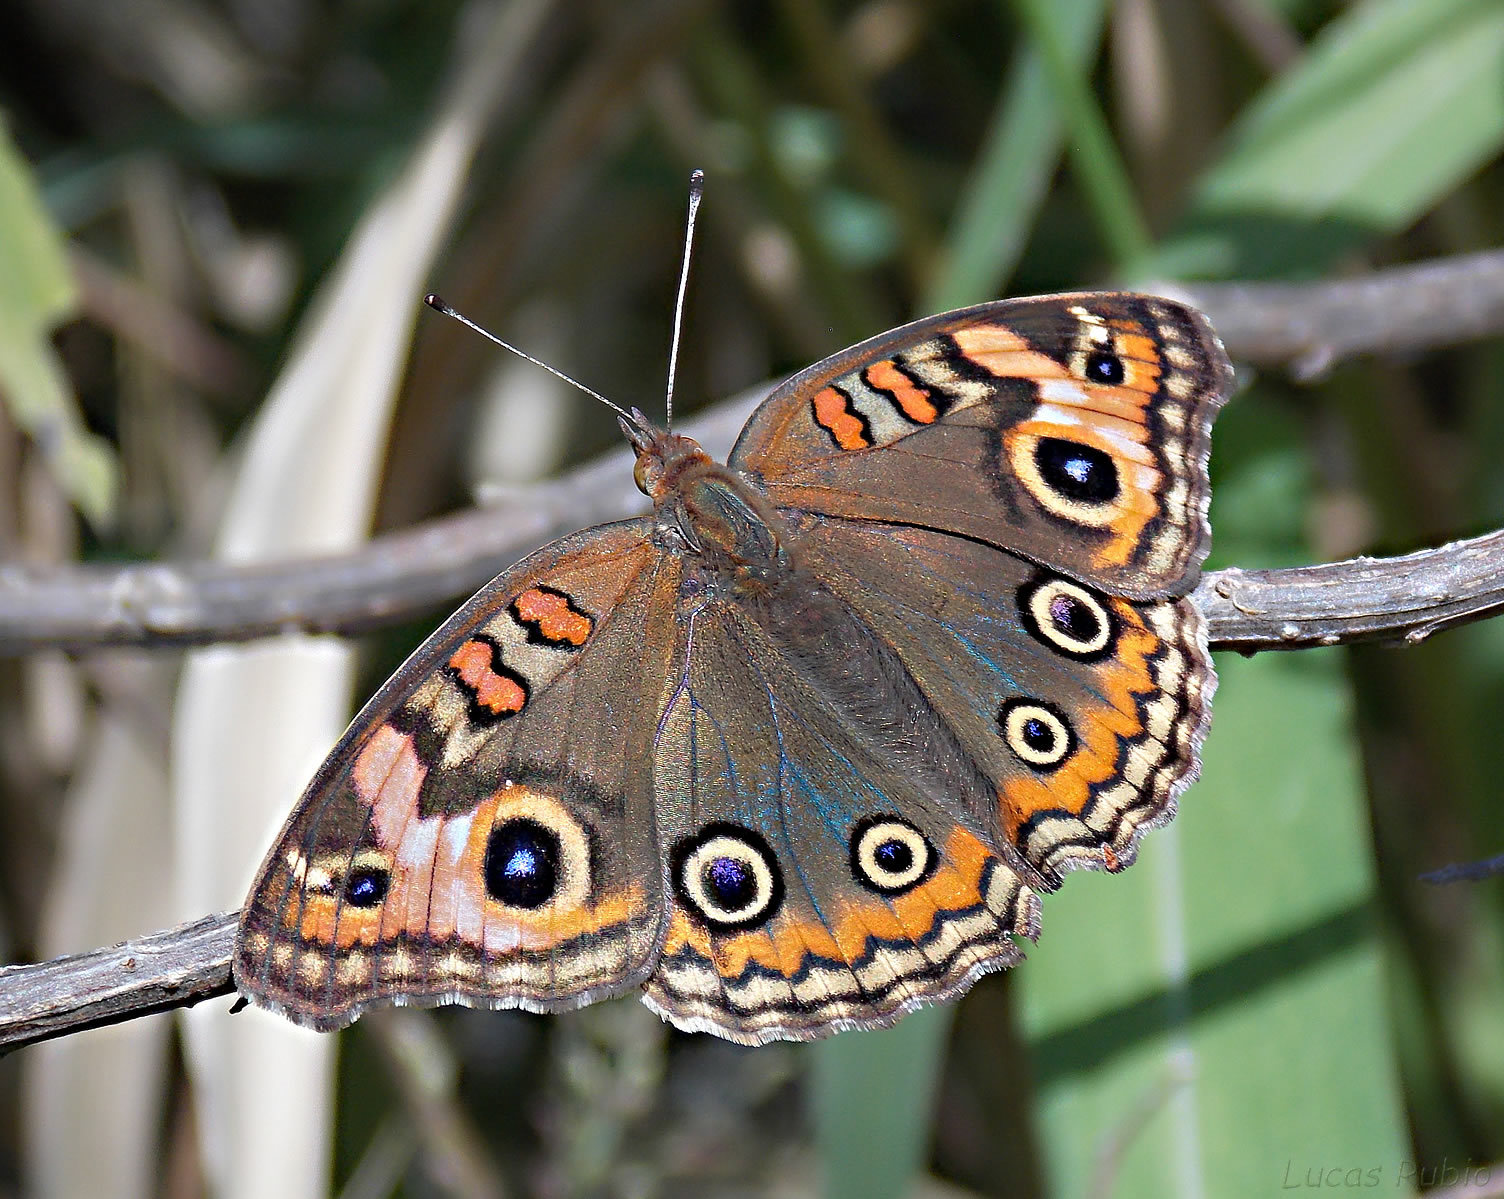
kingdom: Animalia
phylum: Arthropoda
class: Insecta
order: Lepidoptera
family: Nymphalidae
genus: Junonia
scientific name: Junonia lavinia
